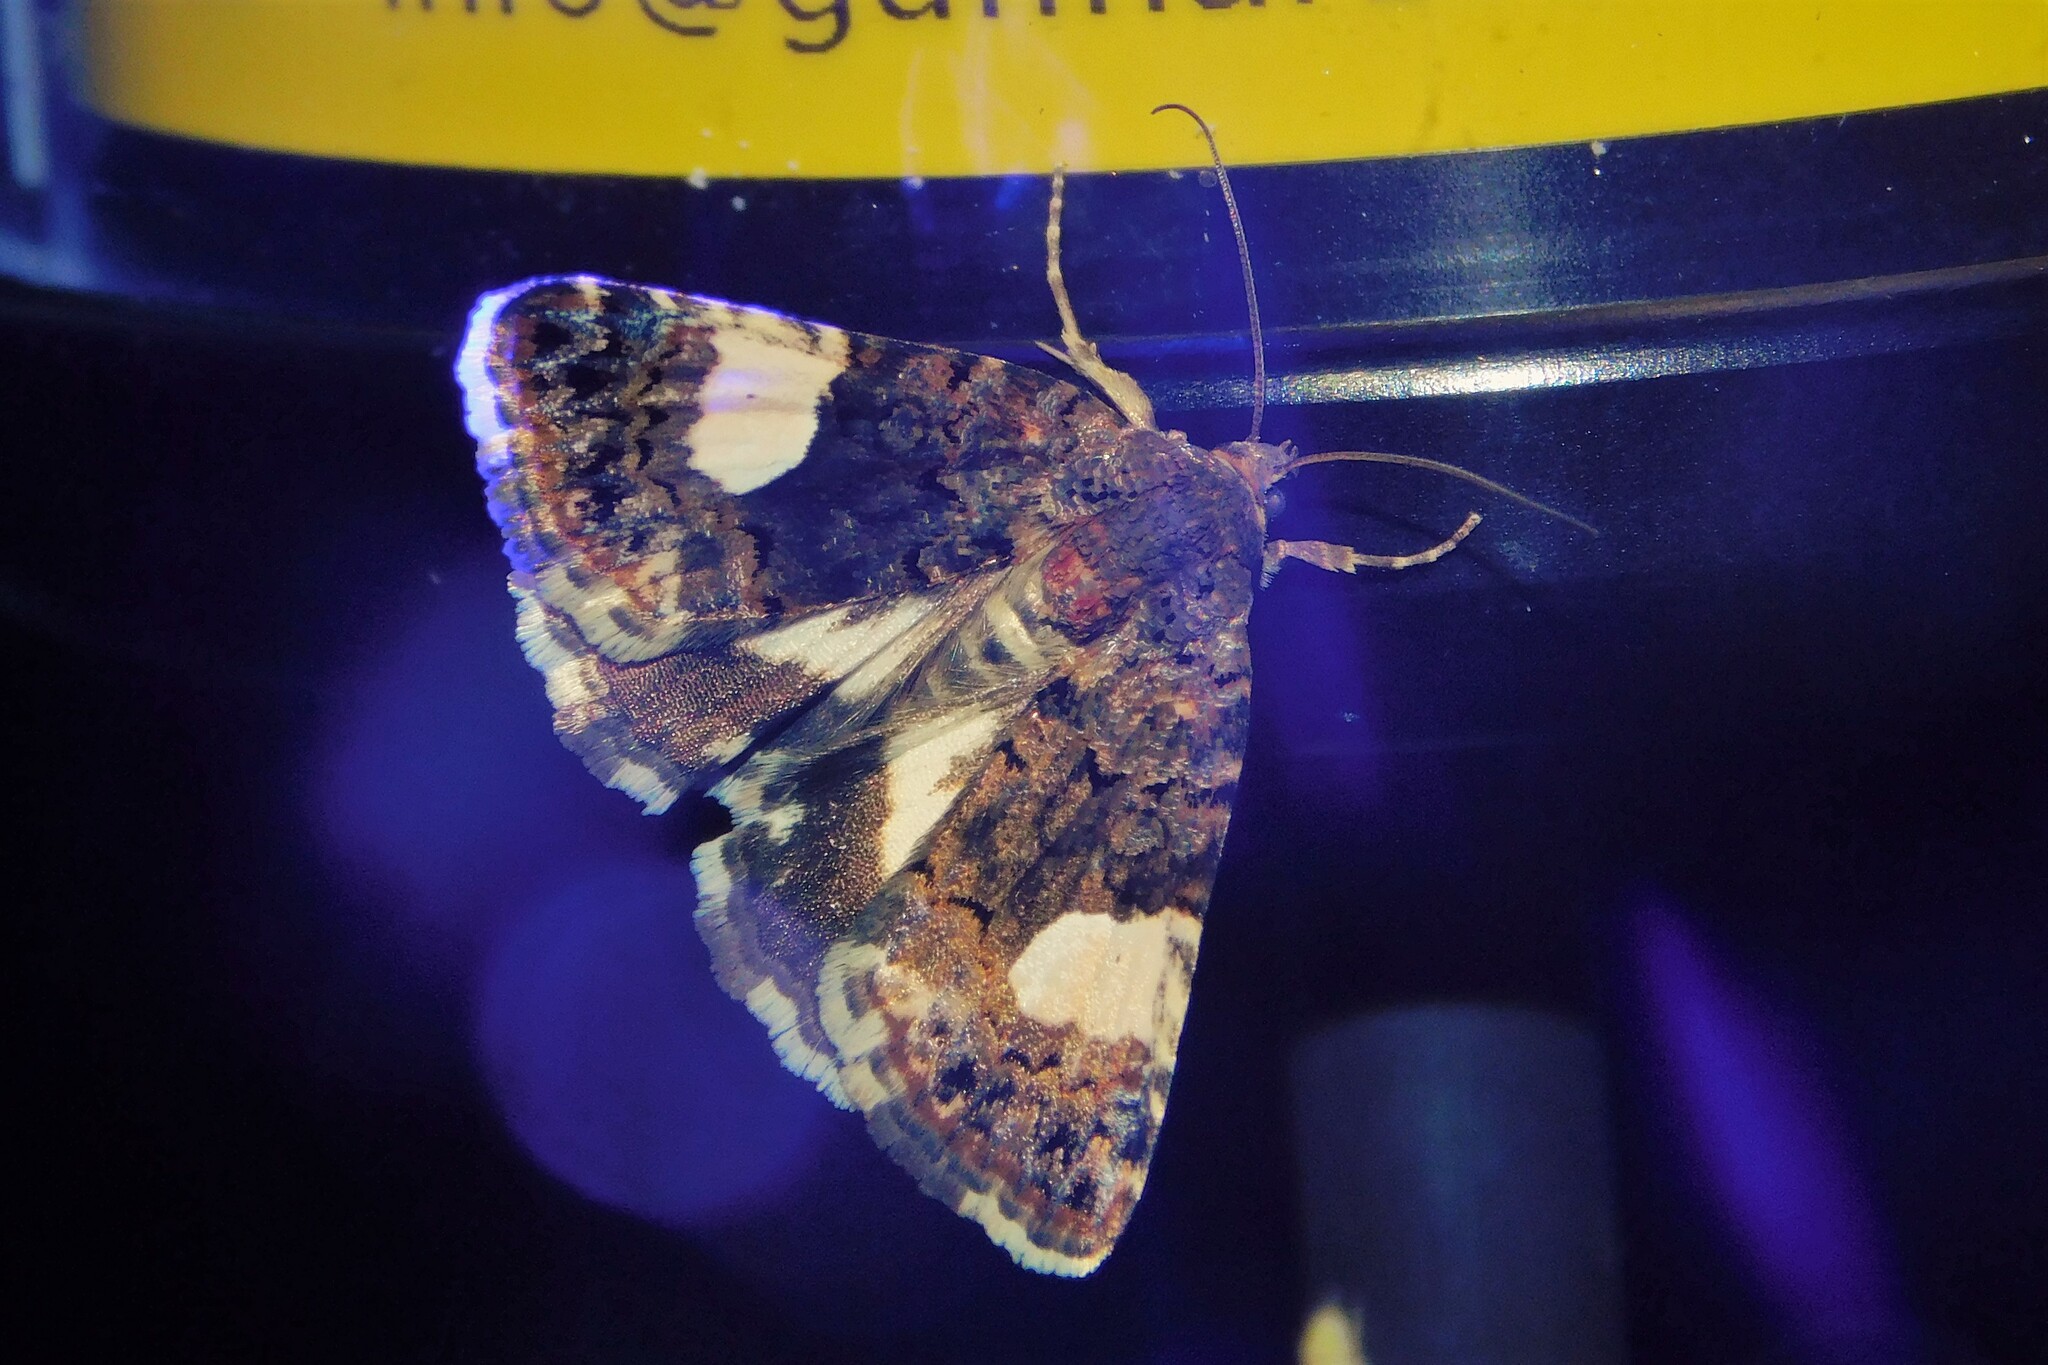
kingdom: Animalia
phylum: Arthropoda
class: Insecta
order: Lepidoptera
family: Erebidae
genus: Tyta
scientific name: Tyta luctuosa
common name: Four-spotted
